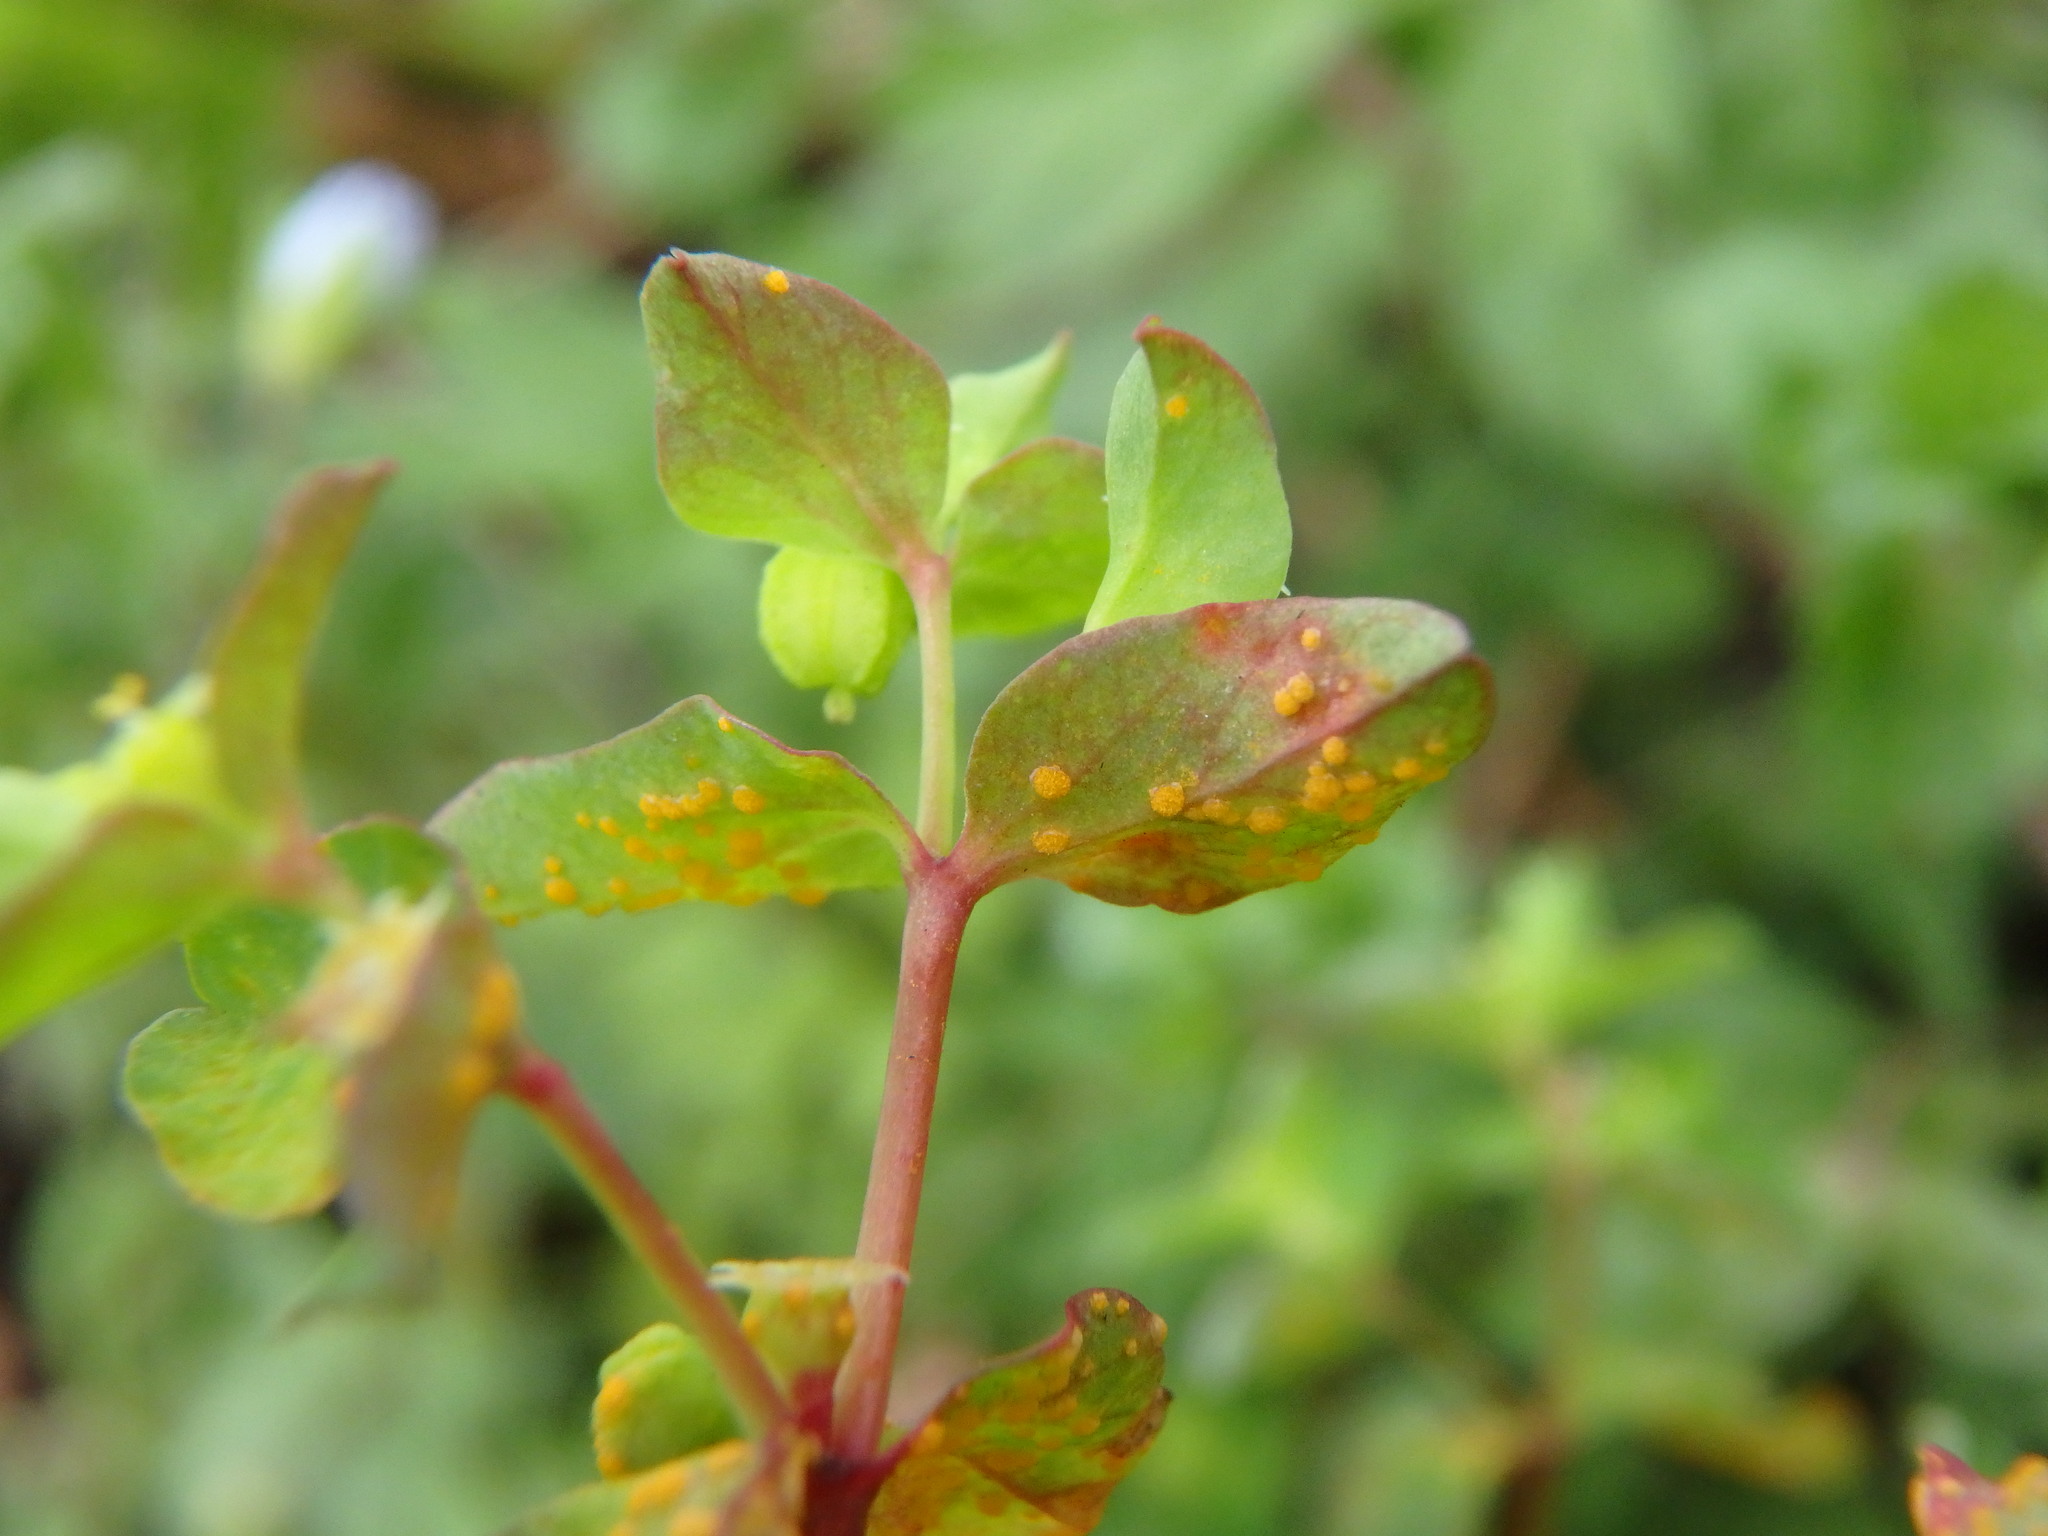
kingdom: Fungi
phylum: Basidiomycota
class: Pucciniomycetes
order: Pucciniales
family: Melampsoraceae
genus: Melampsora
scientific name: Melampsora euphorbiae
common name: Spurge rust
